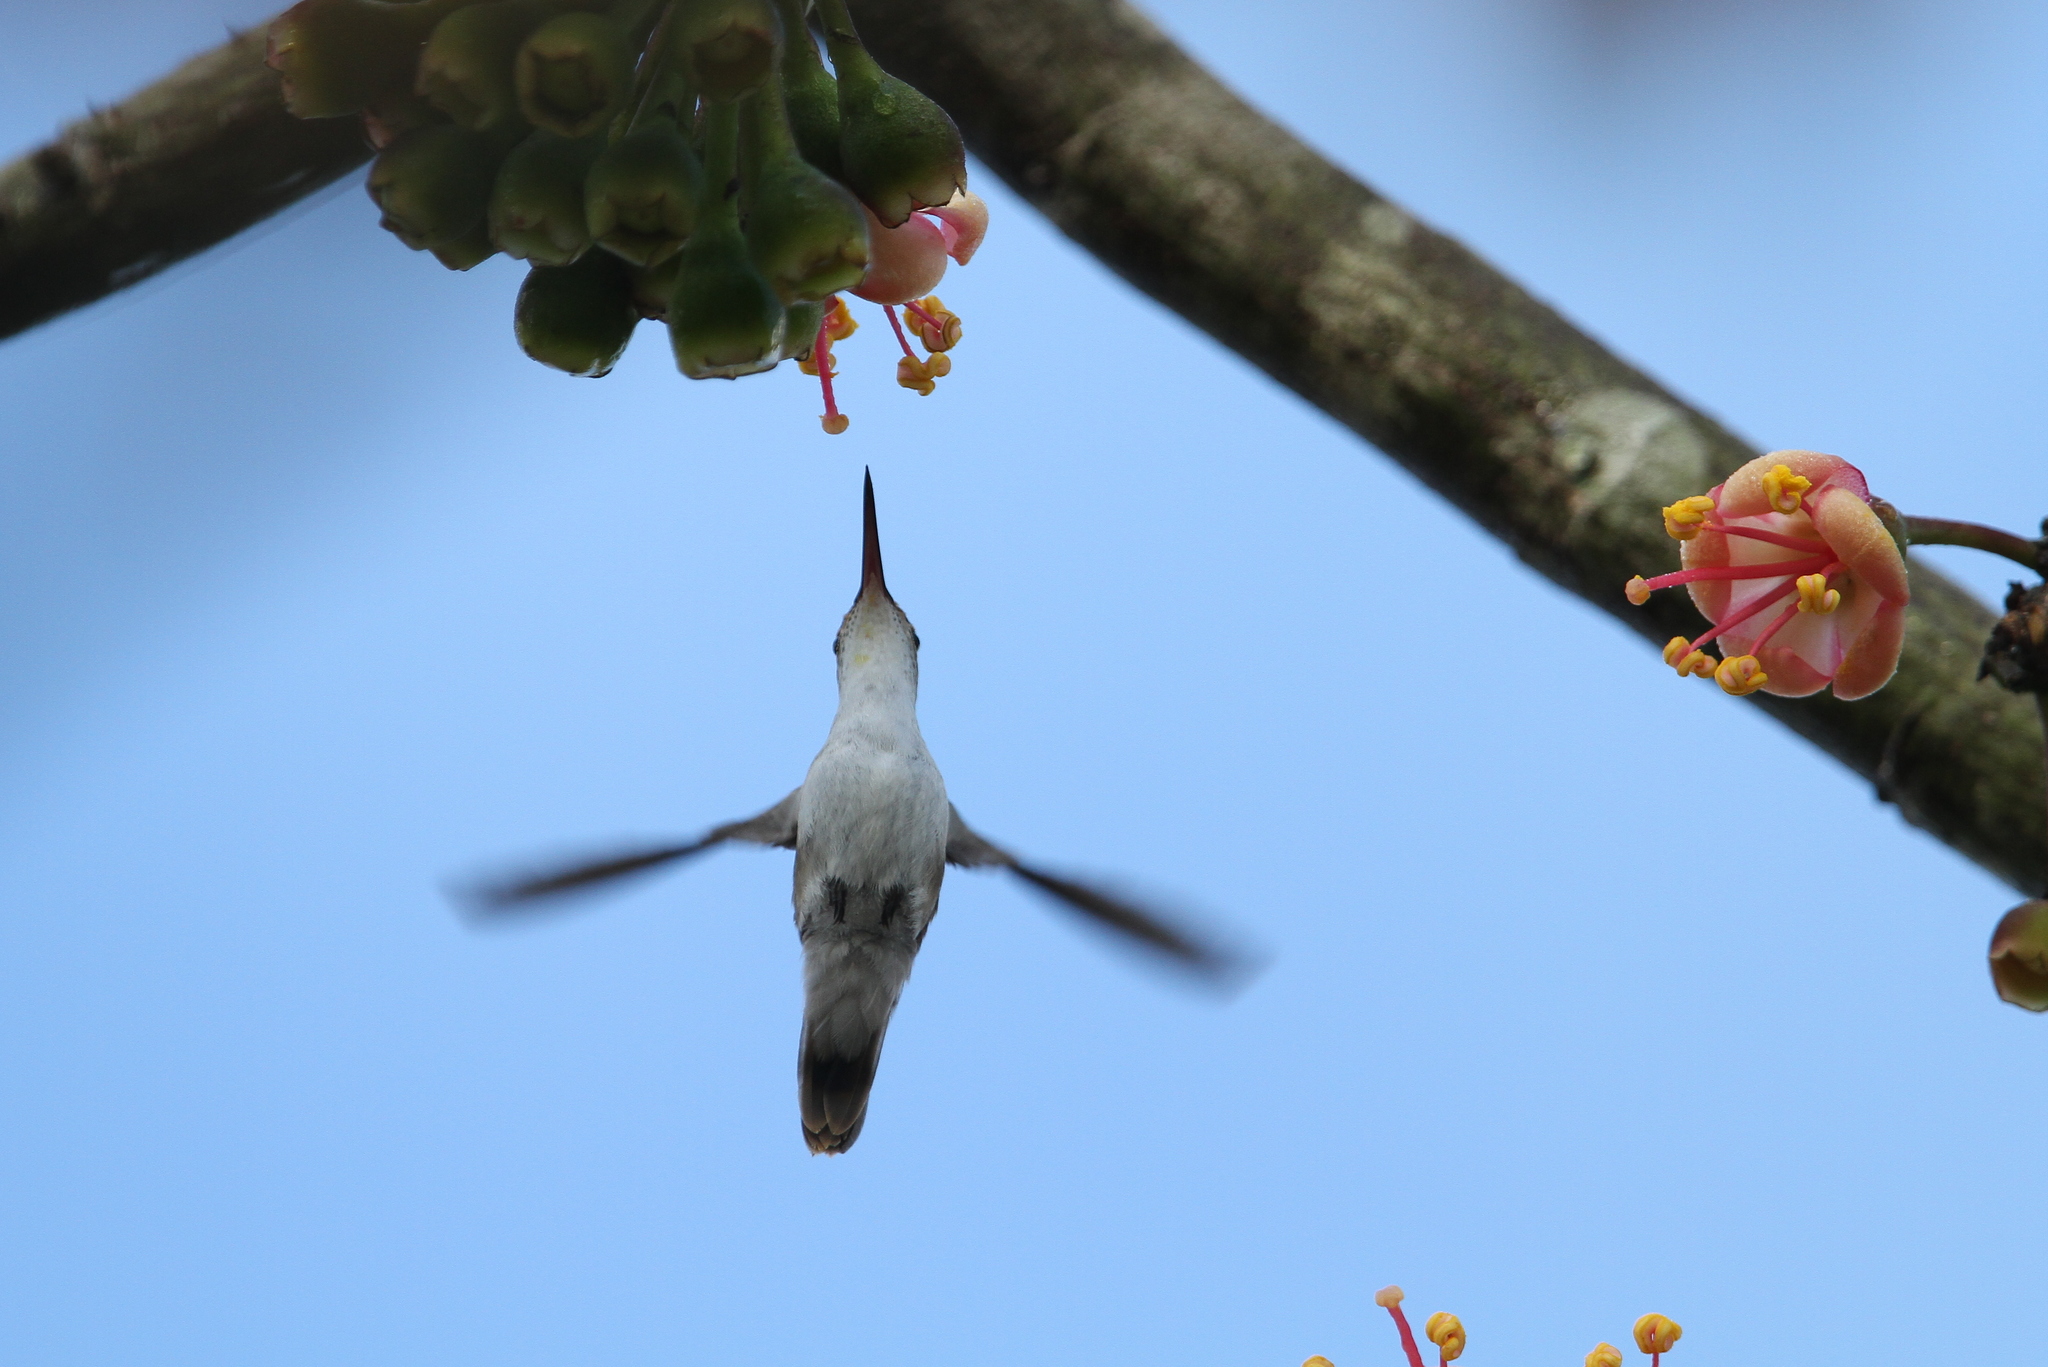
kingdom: Animalia
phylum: Chordata
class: Aves
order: Apodiformes
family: Trochilidae
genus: Chlorestes
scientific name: Chlorestes candida
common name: White-bellied emerald
